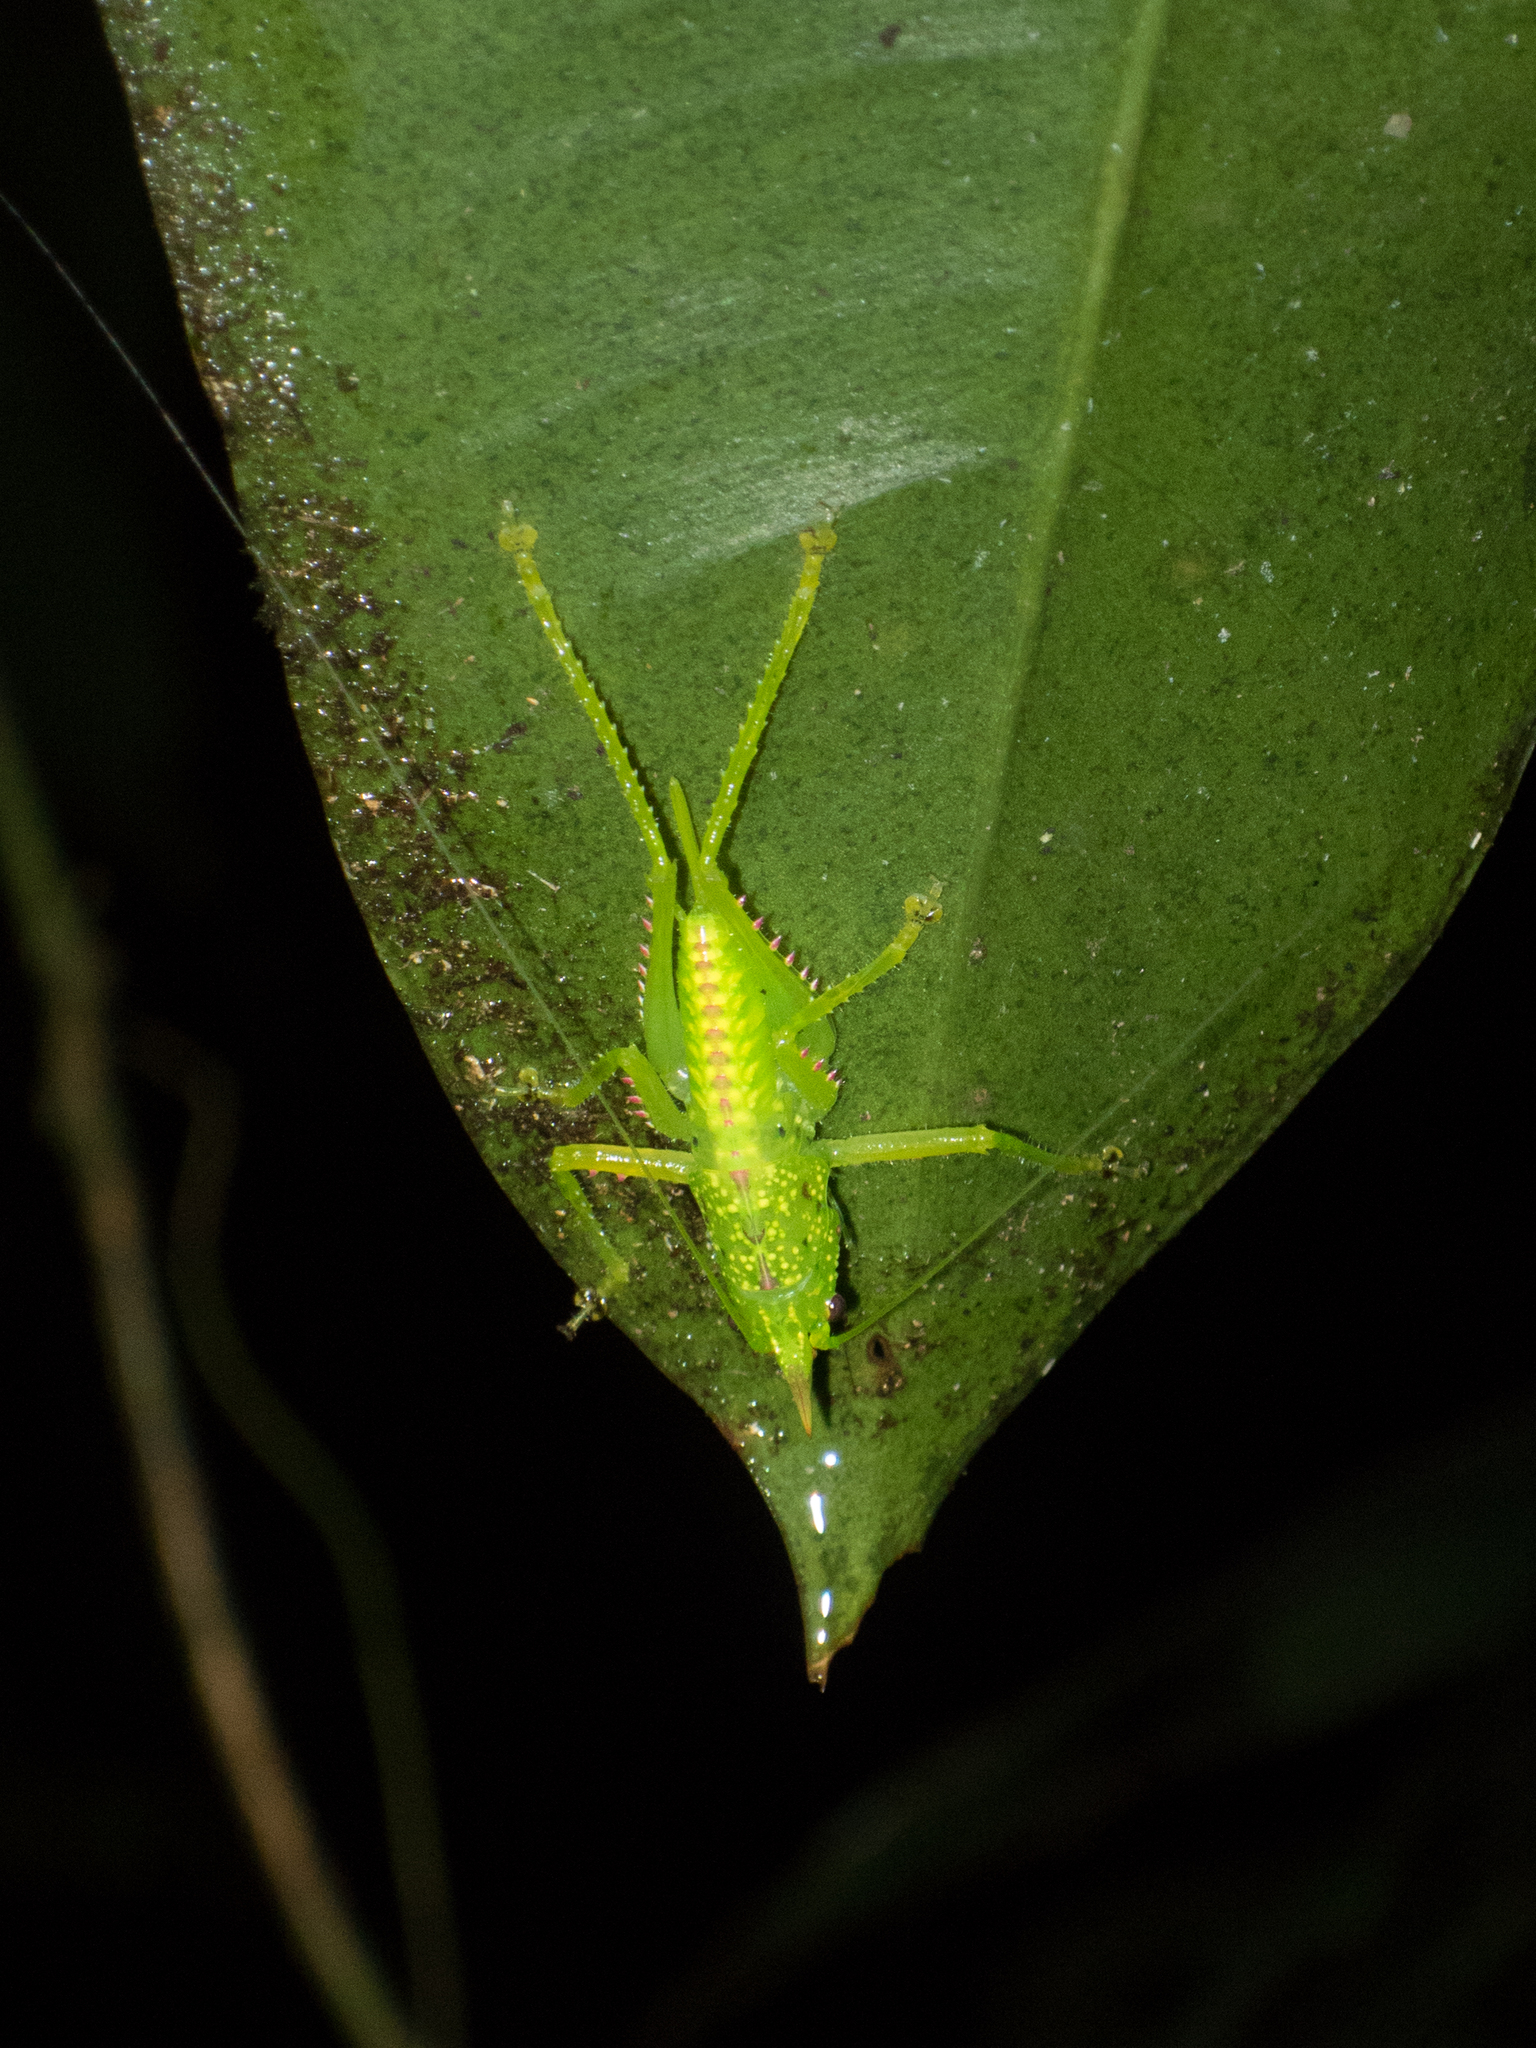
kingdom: Animalia
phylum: Arthropoda
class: Insecta
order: Orthoptera
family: Tettigoniidae
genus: Copiphora
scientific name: Copiphora rhinoceros
